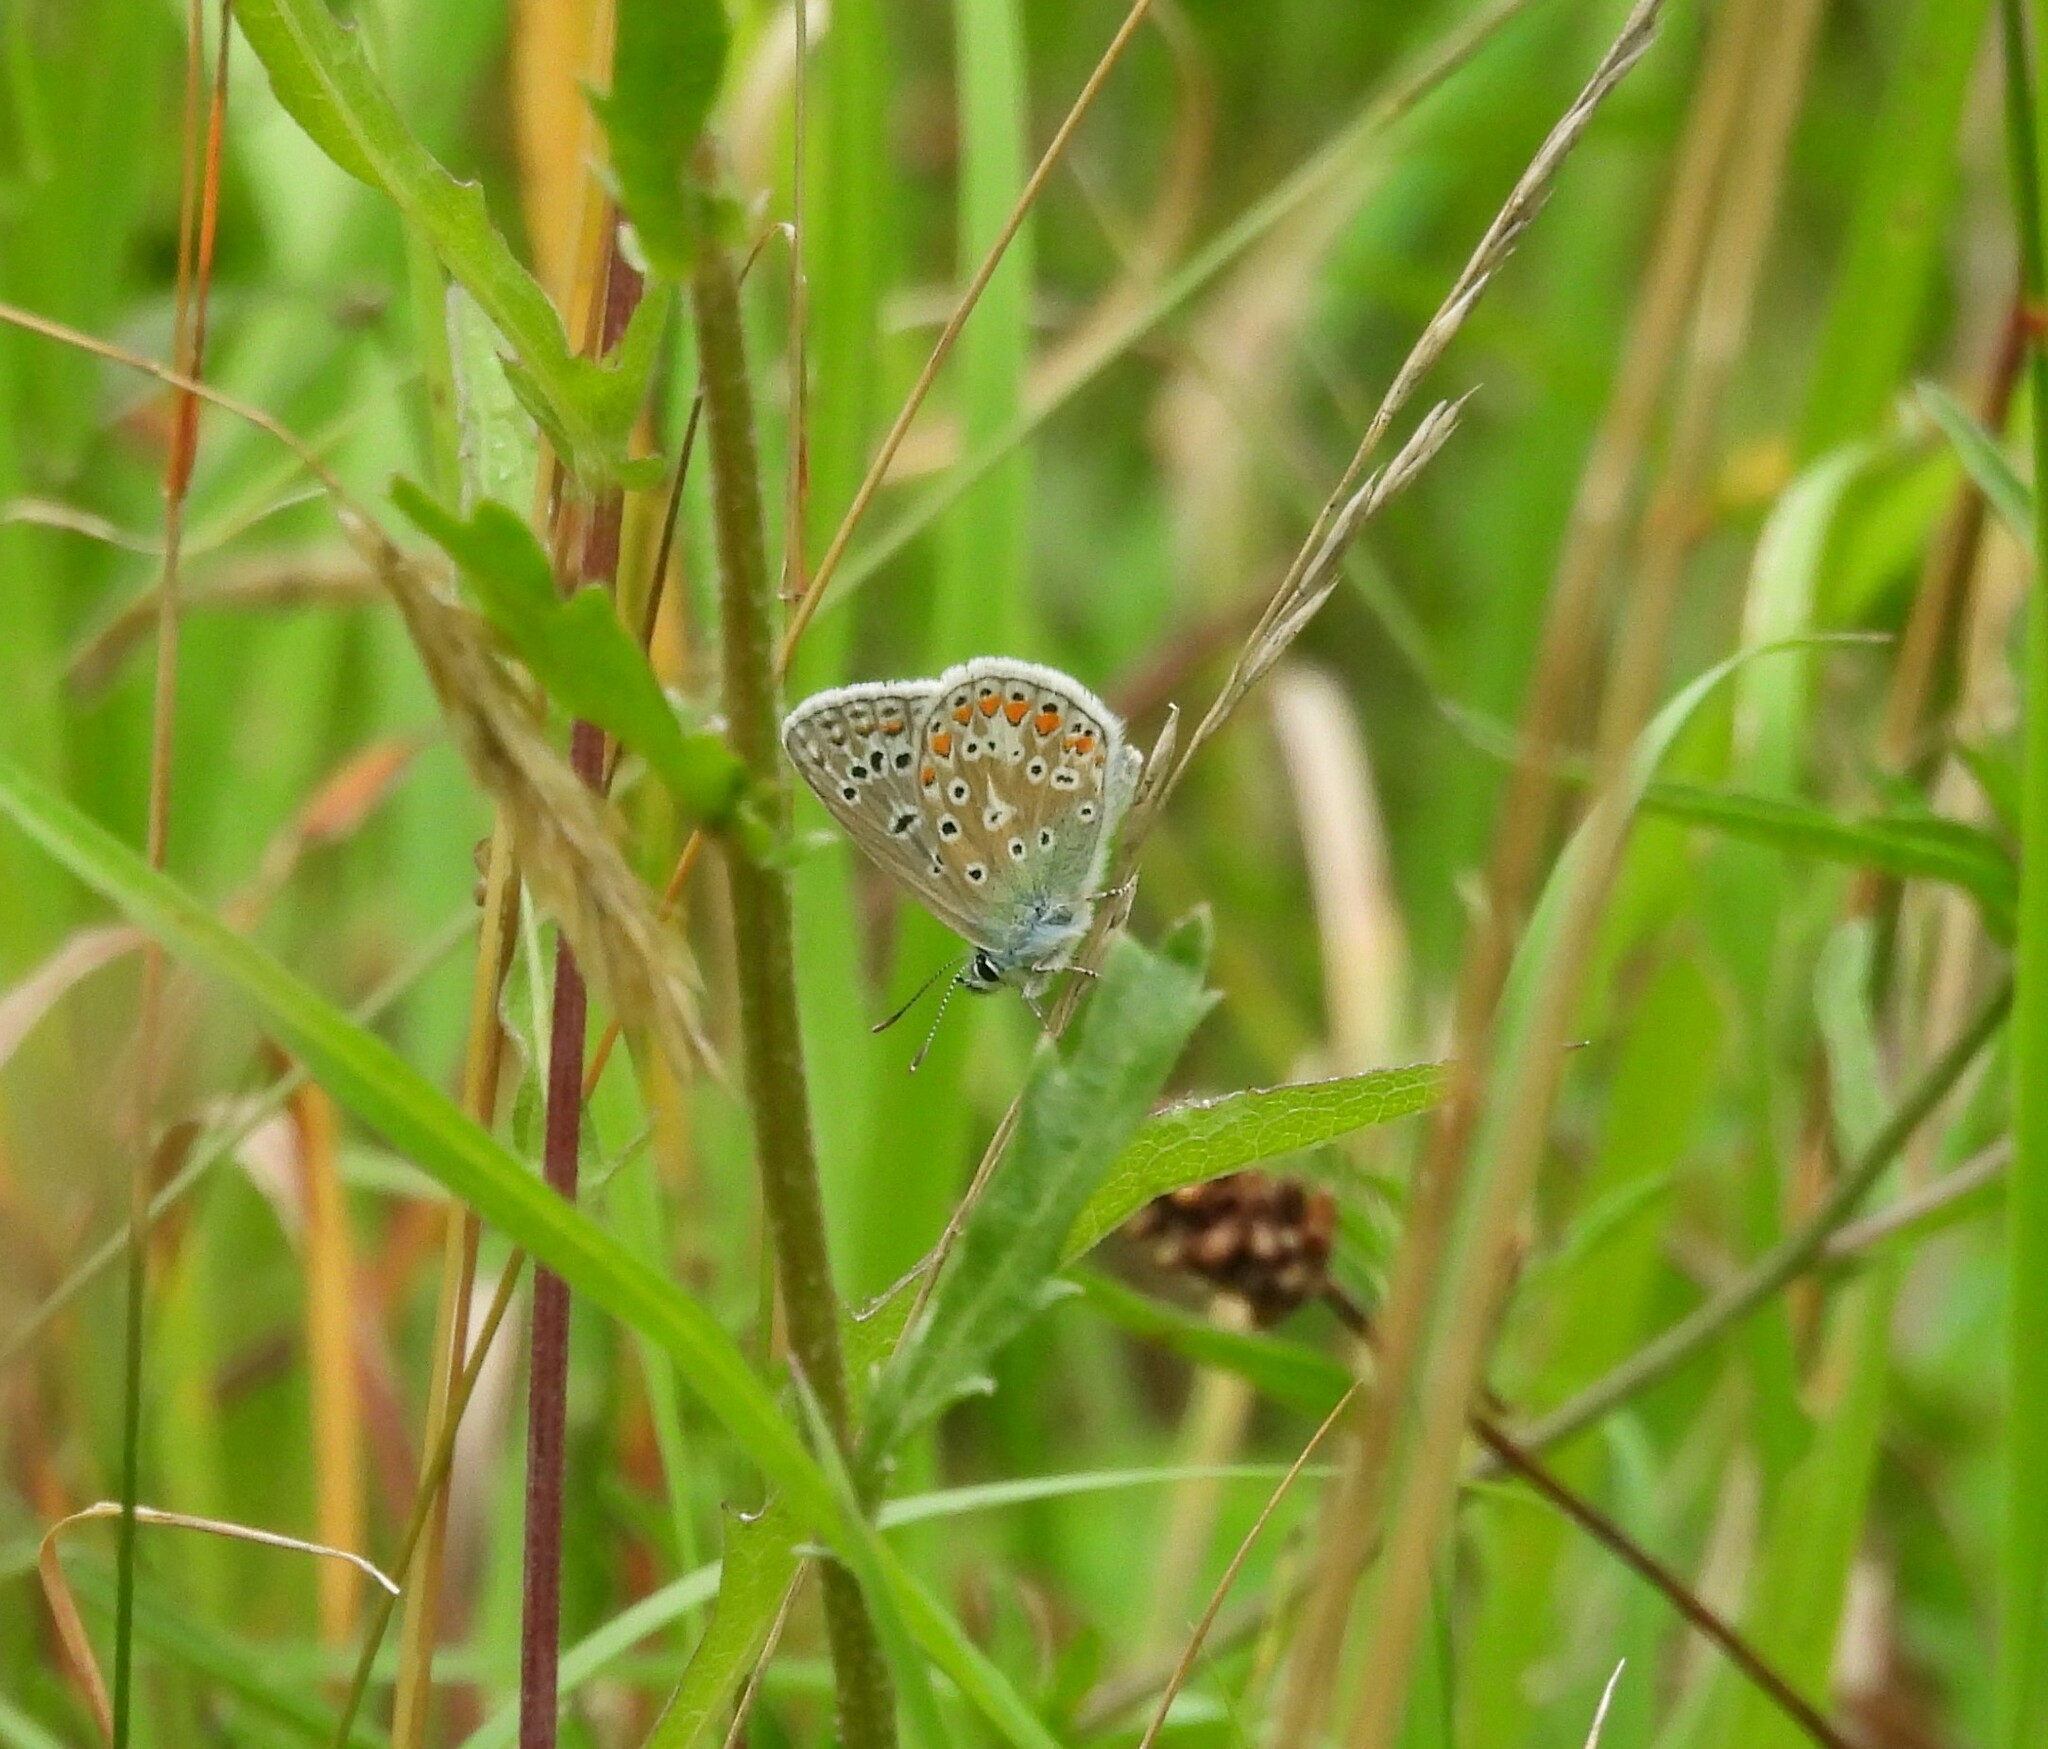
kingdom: Animalia
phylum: Arthropoda
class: Insecta
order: Lepidoptera
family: Lycaenidae
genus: Polyommatus
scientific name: Polyommatus icarus
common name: Common blue
